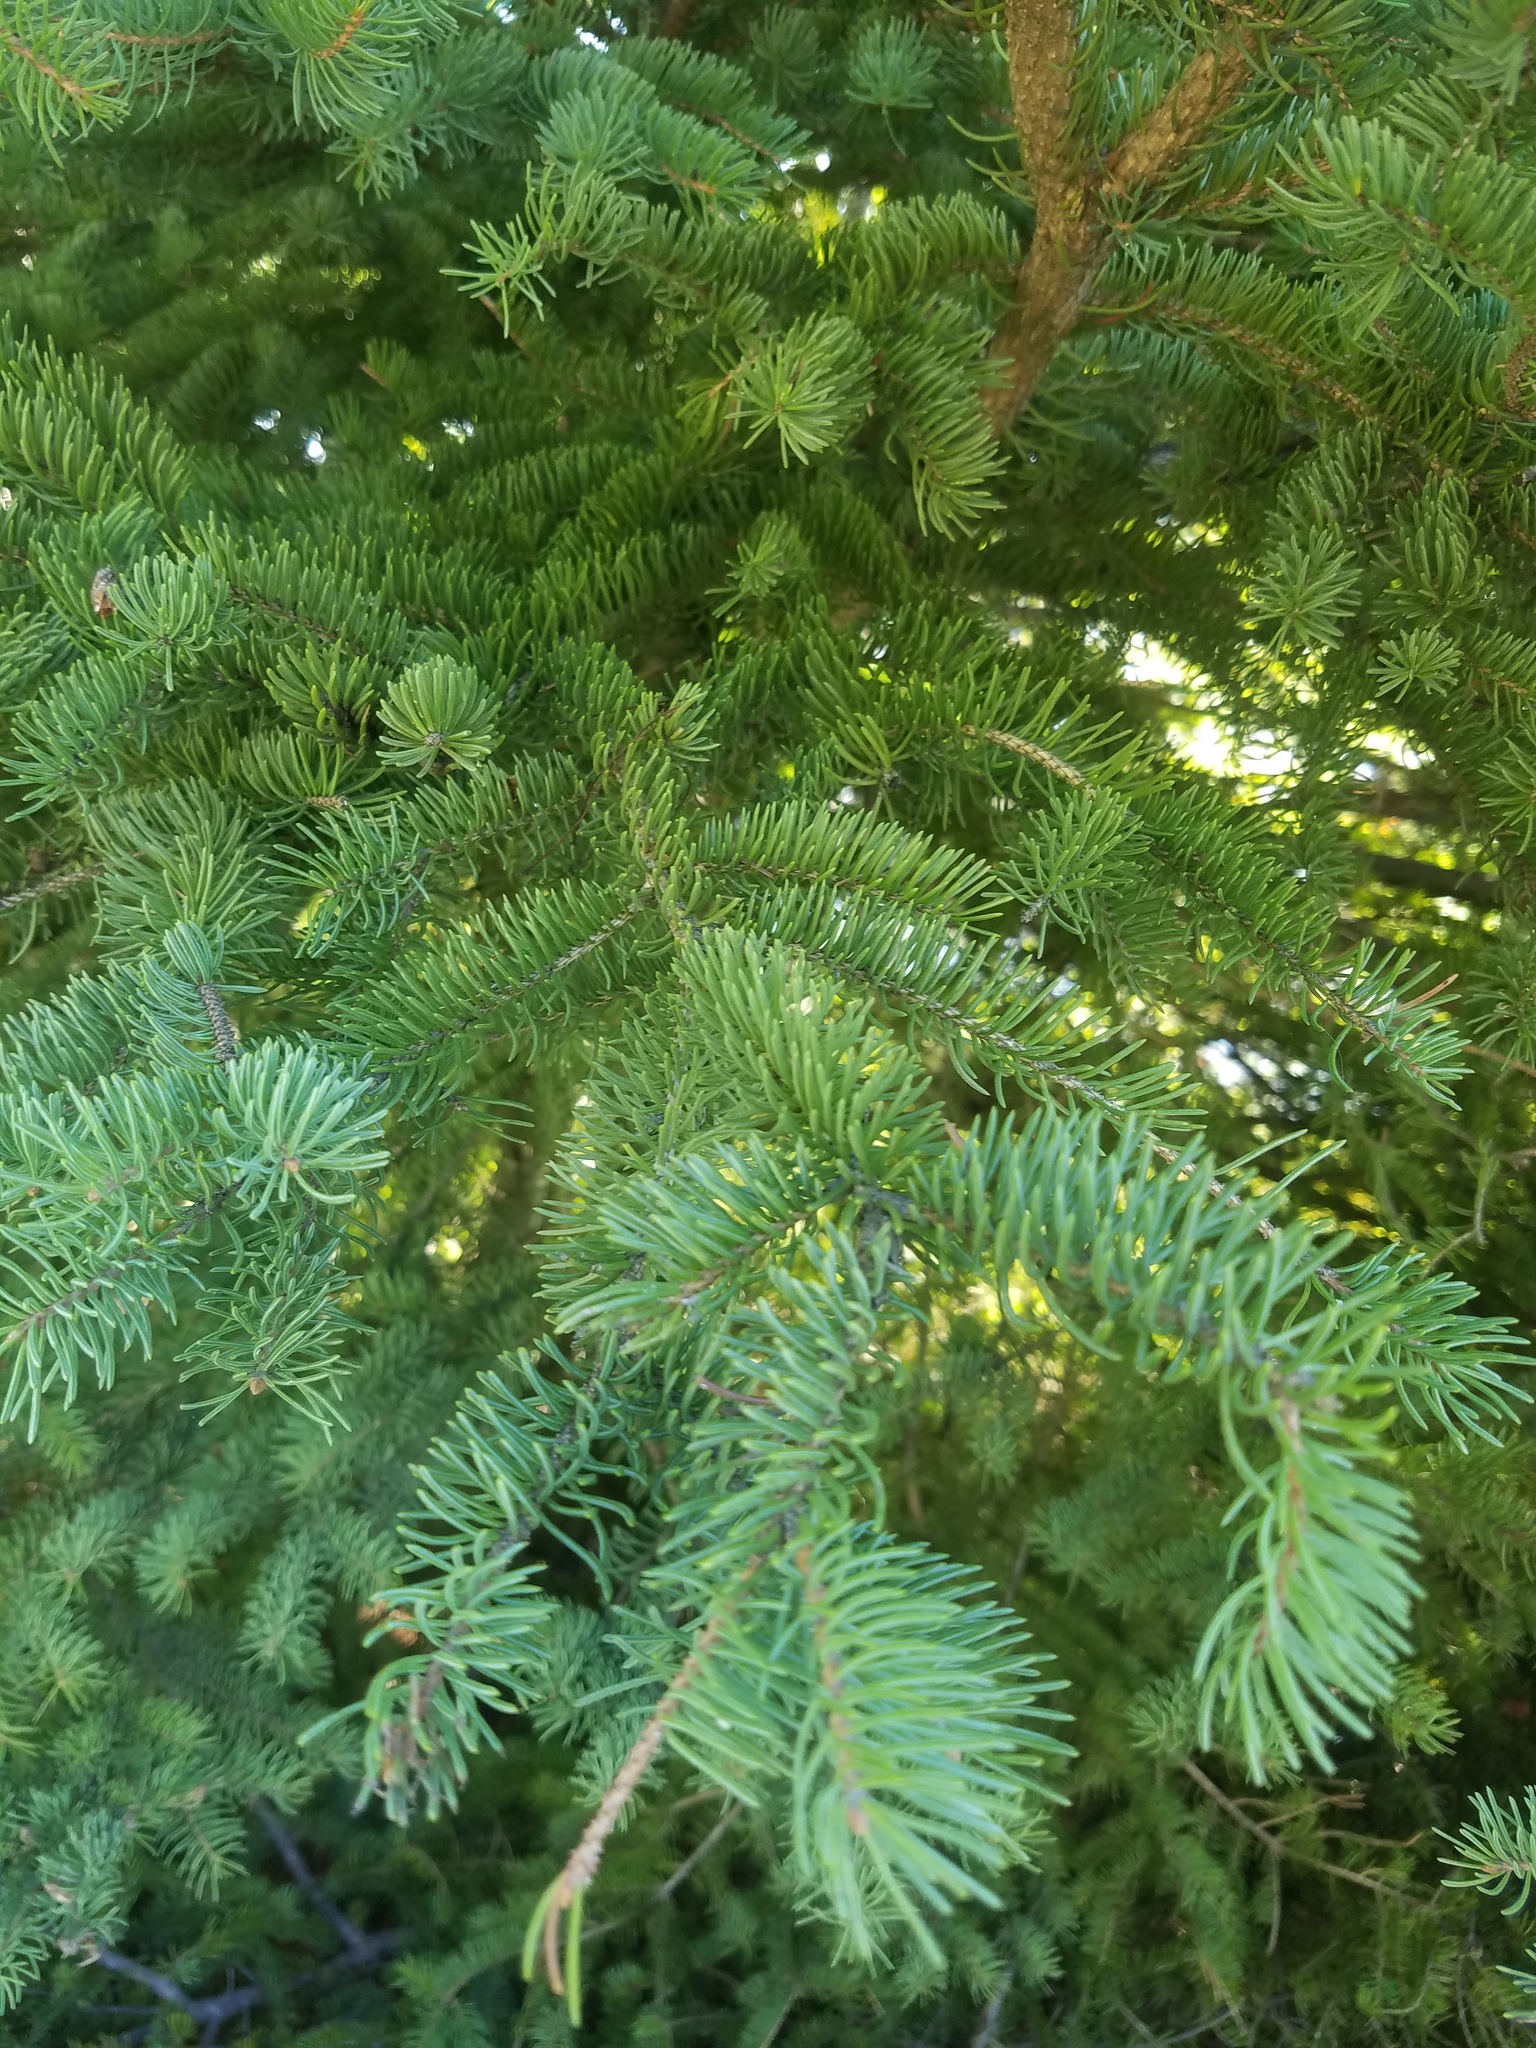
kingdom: Plantae
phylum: Tracheophyta
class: Pinopsida
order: Pinales
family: Pinaceae
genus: Picea
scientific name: Picea glauca
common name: White spruce
